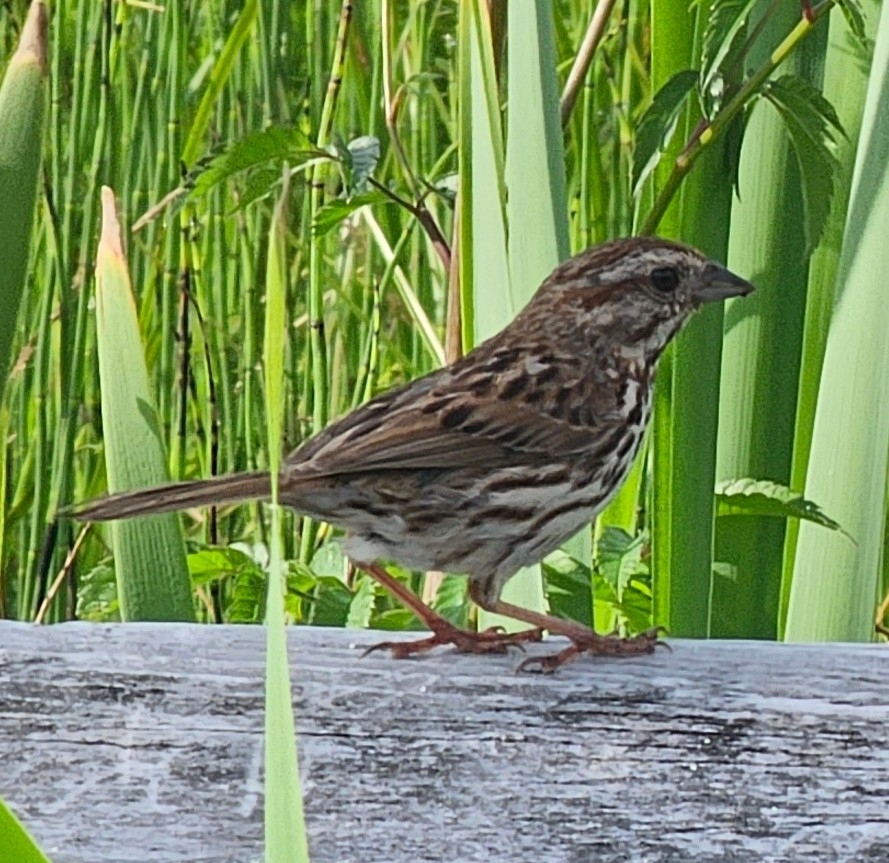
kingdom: Animalia
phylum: Chordata
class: Aves
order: Passeriformes
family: Passerellidae
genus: Melospiza
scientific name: Melospiza melodia
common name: Song sparrow
